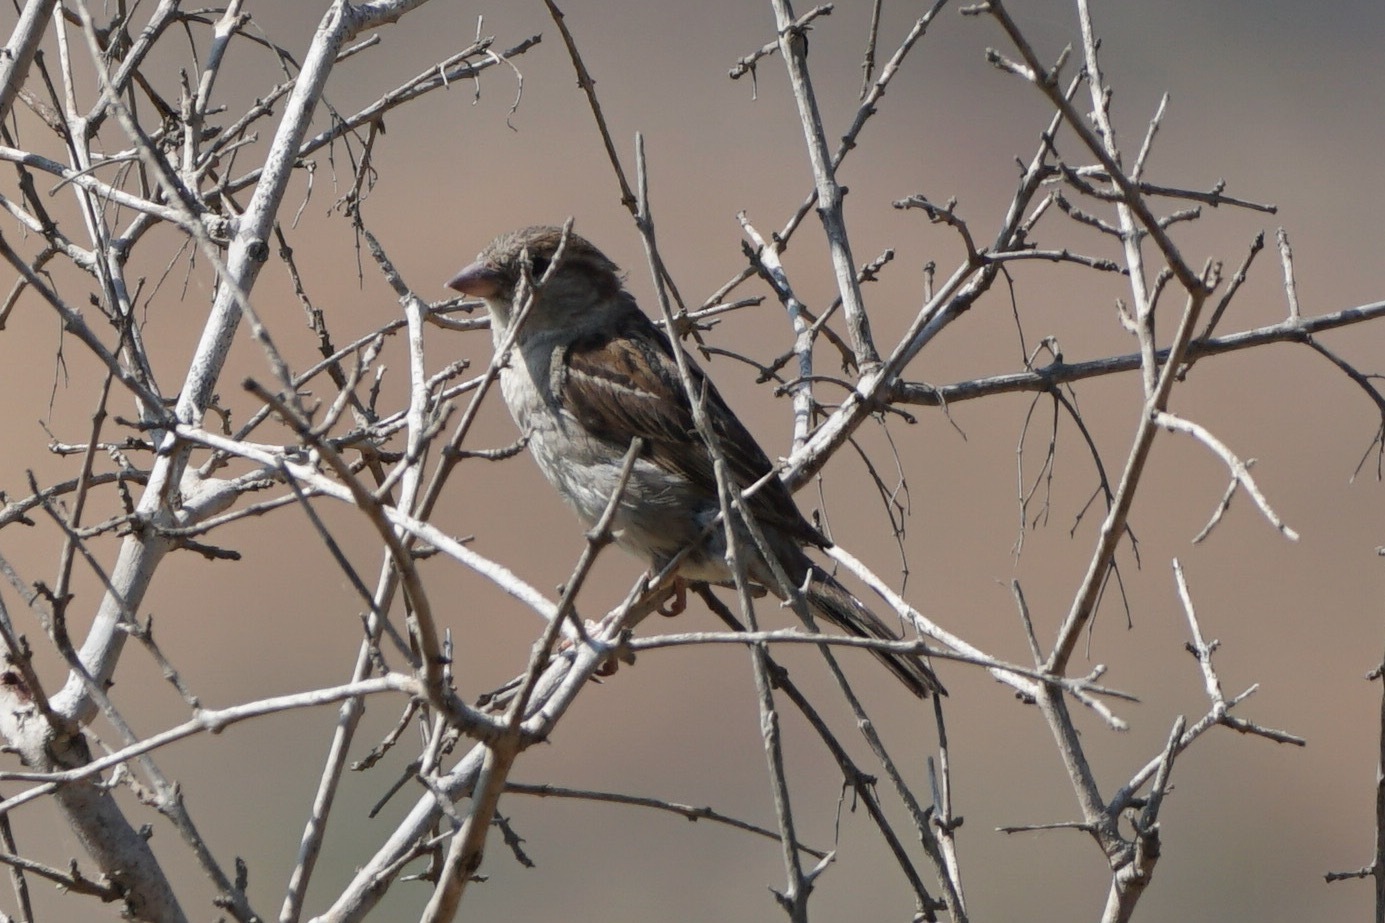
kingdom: Animalia
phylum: Chordata
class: Aves
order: Passeriformes
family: Passeridae
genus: Passer
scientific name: Passer domesticus
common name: House sparrow
